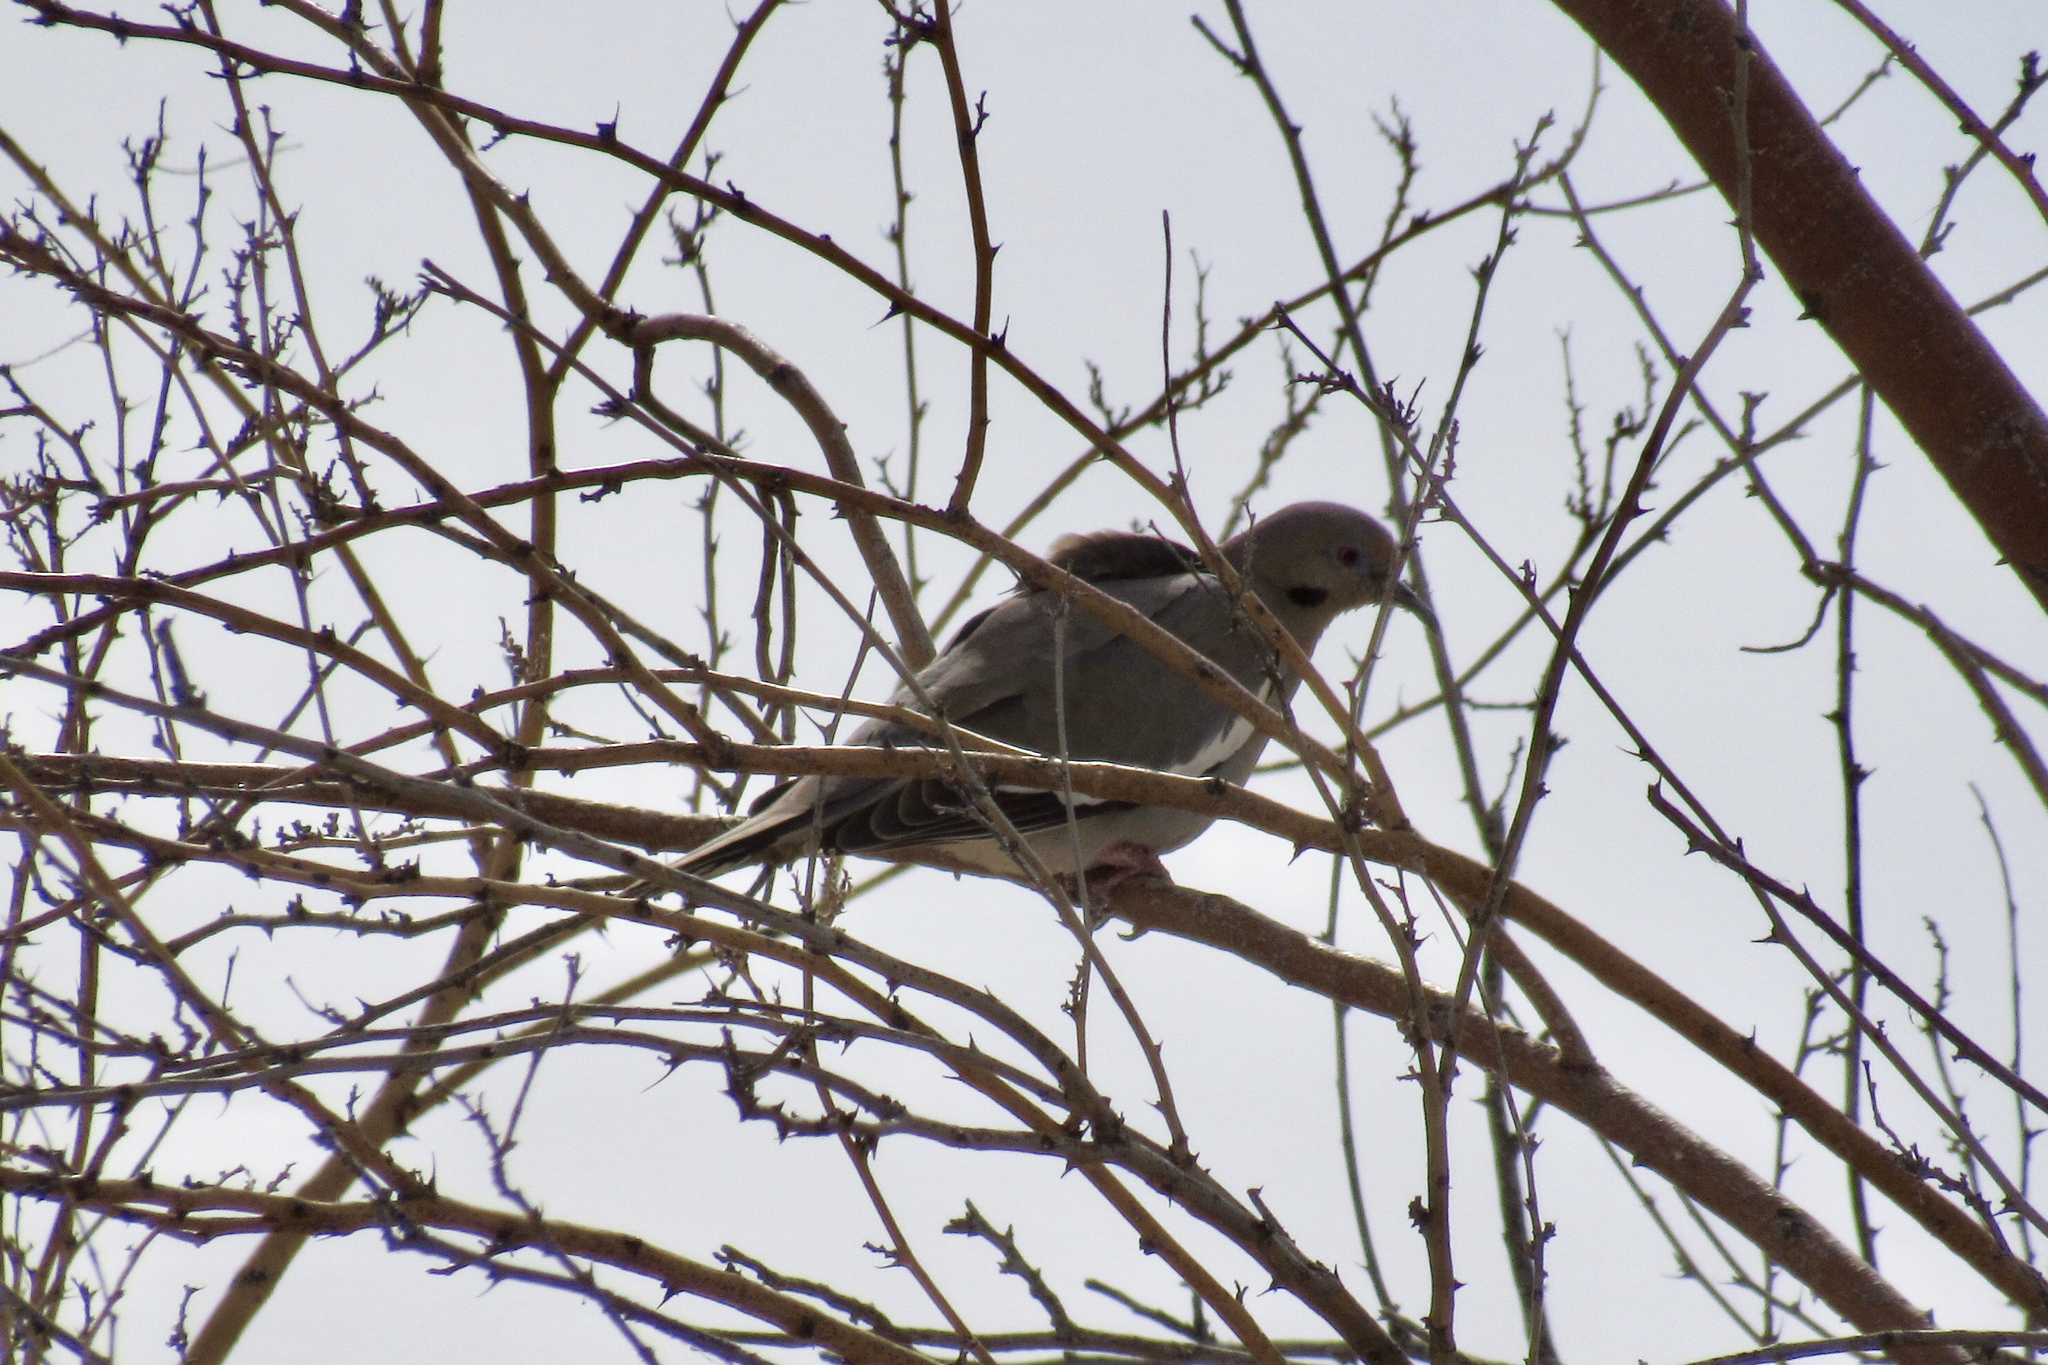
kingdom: Animalia
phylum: Chordata
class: Aves
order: Columbiformes
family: Columbidae
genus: Zenaida
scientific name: Zenaida asiatica
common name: White-winged dove
